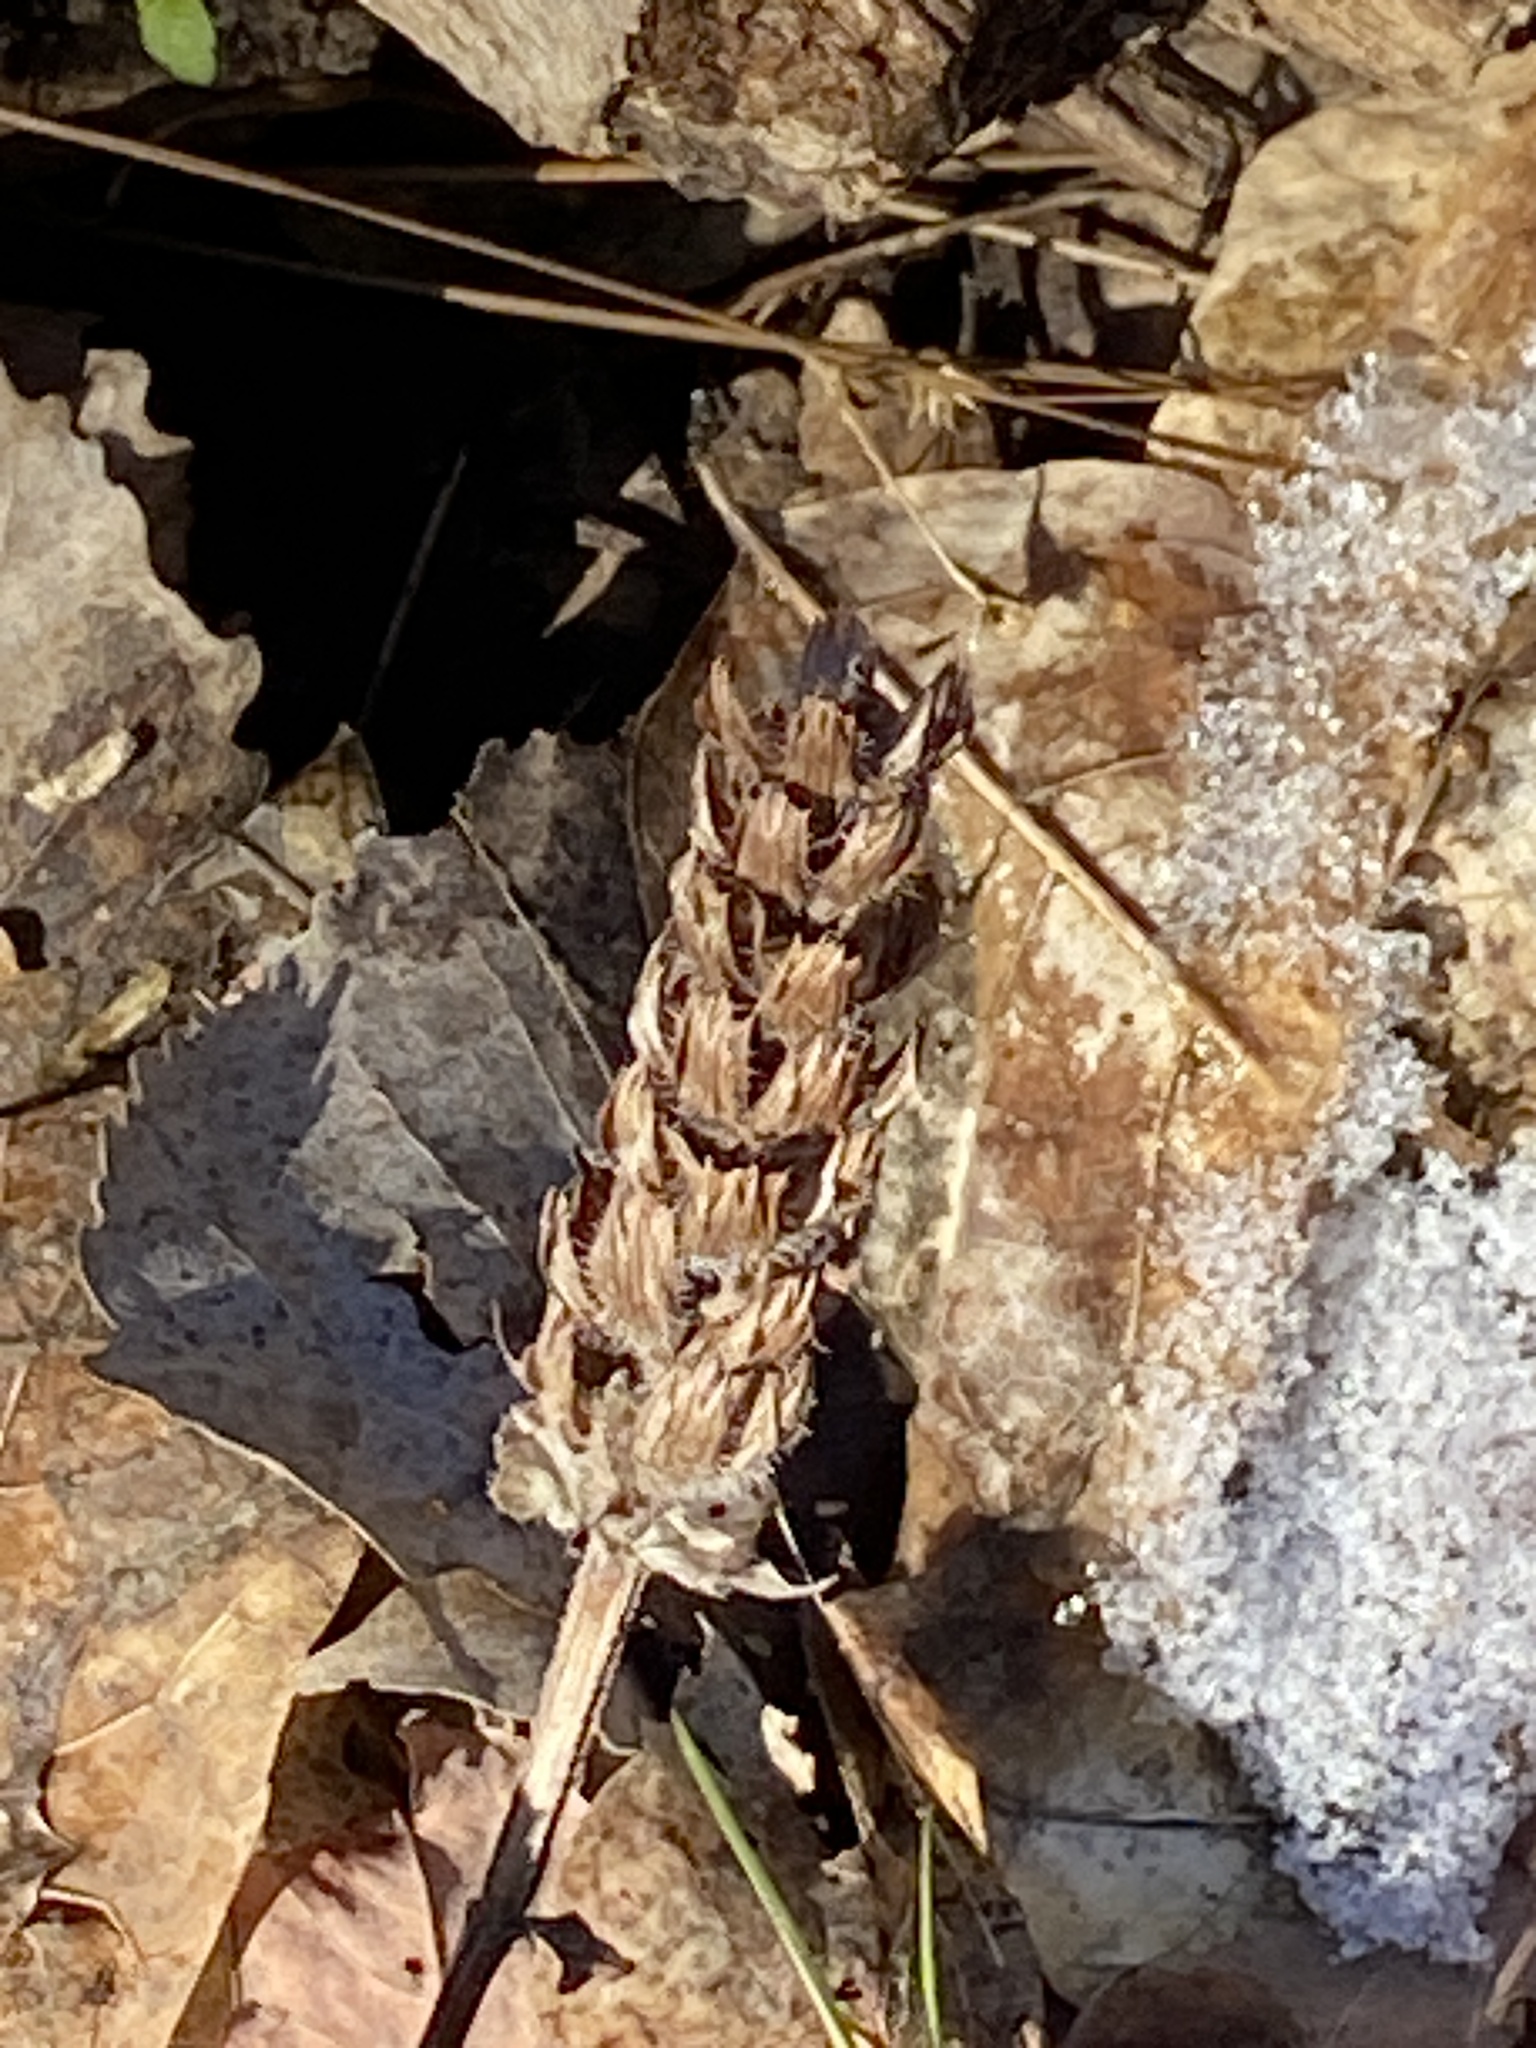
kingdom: Plantae
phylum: Tracheophyta
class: Magnoliopsida
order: Lamiales
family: Lamiaceae
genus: Prunella
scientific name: Prunella vulgaris
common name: Heal-all
